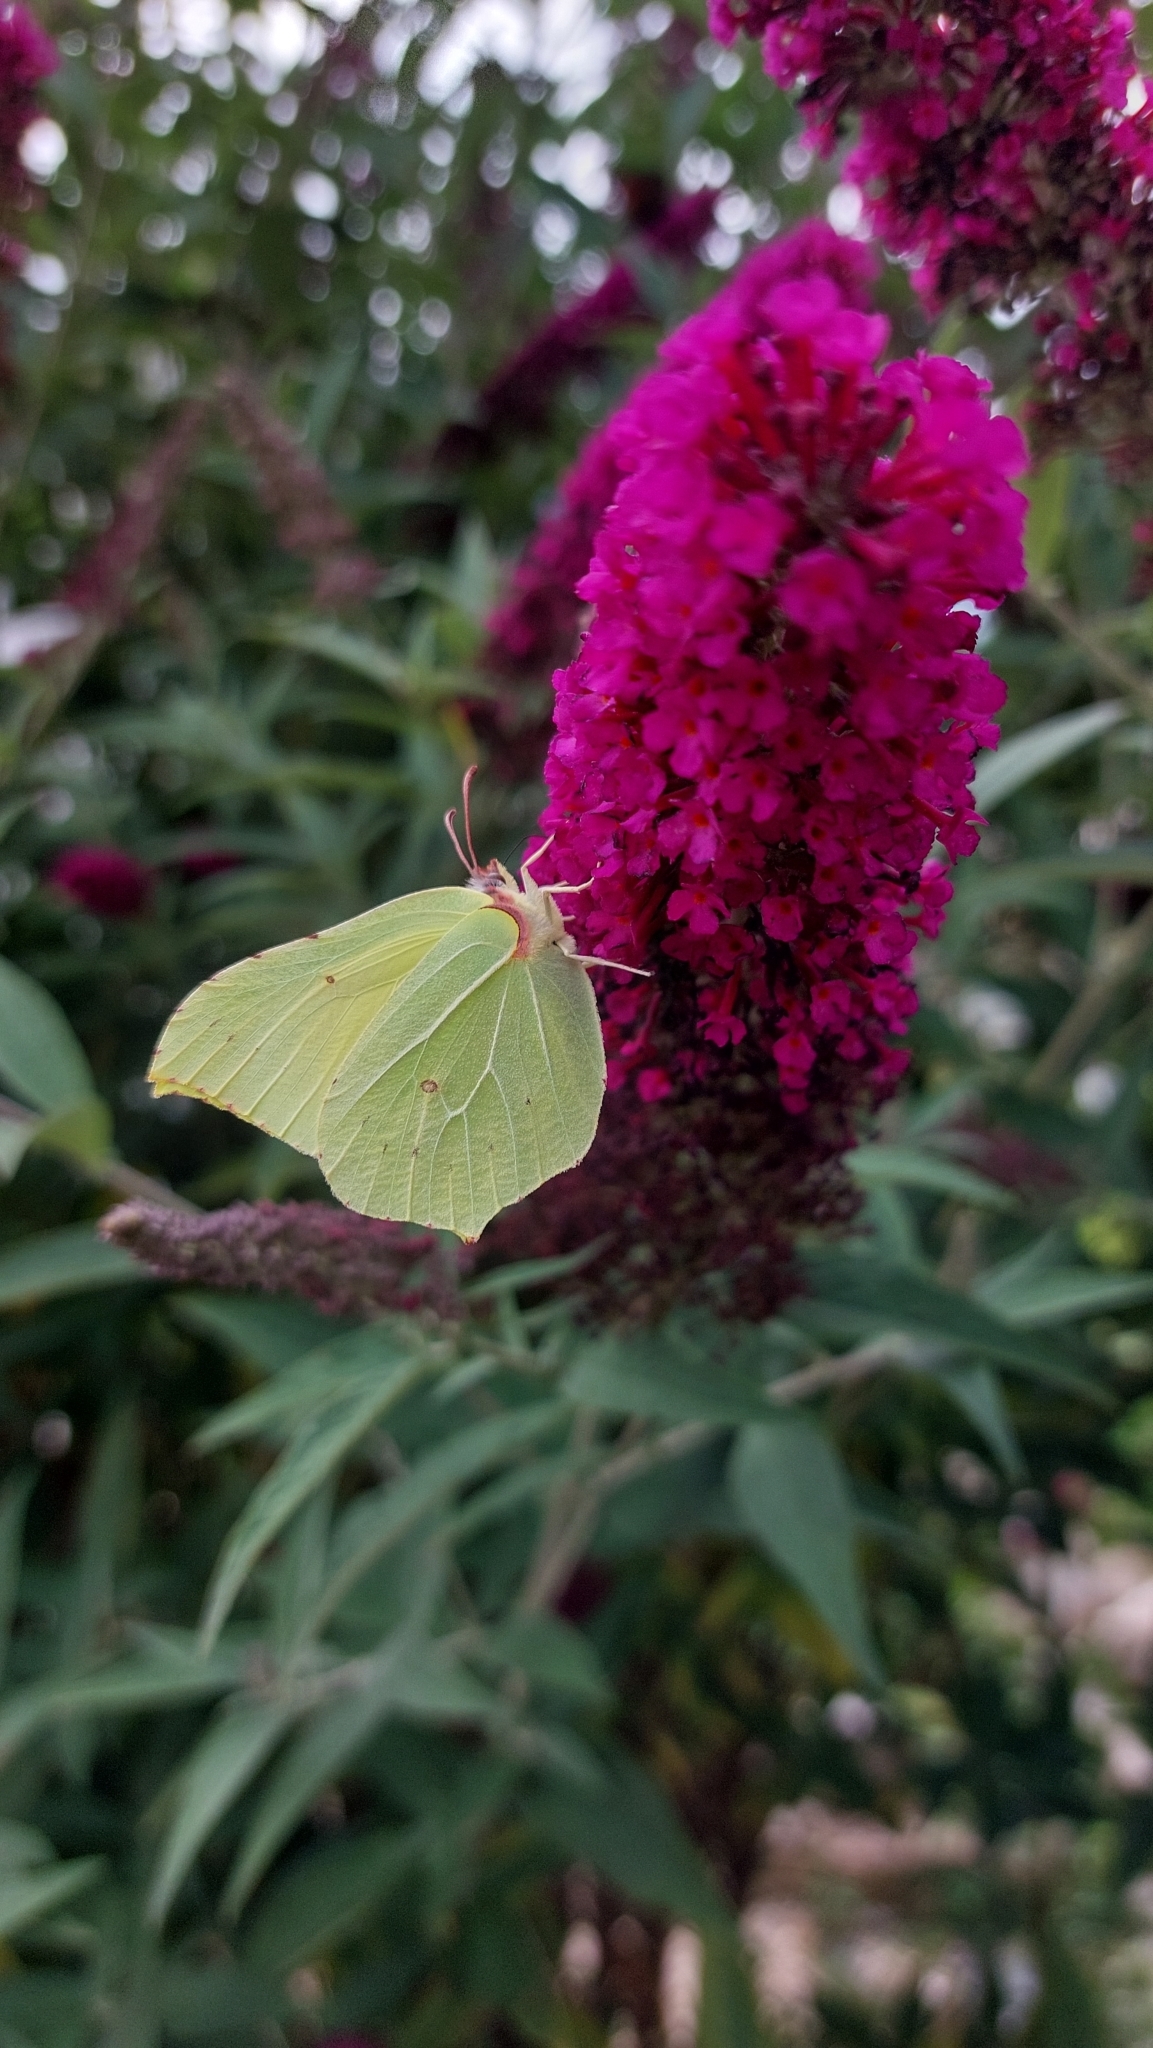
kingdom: Animalia
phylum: Arthropoda
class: Insecta
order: Lepidoptera
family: Pieridae
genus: Gonepteryx
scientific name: Gonepteryx rhamni
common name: Brimstone
